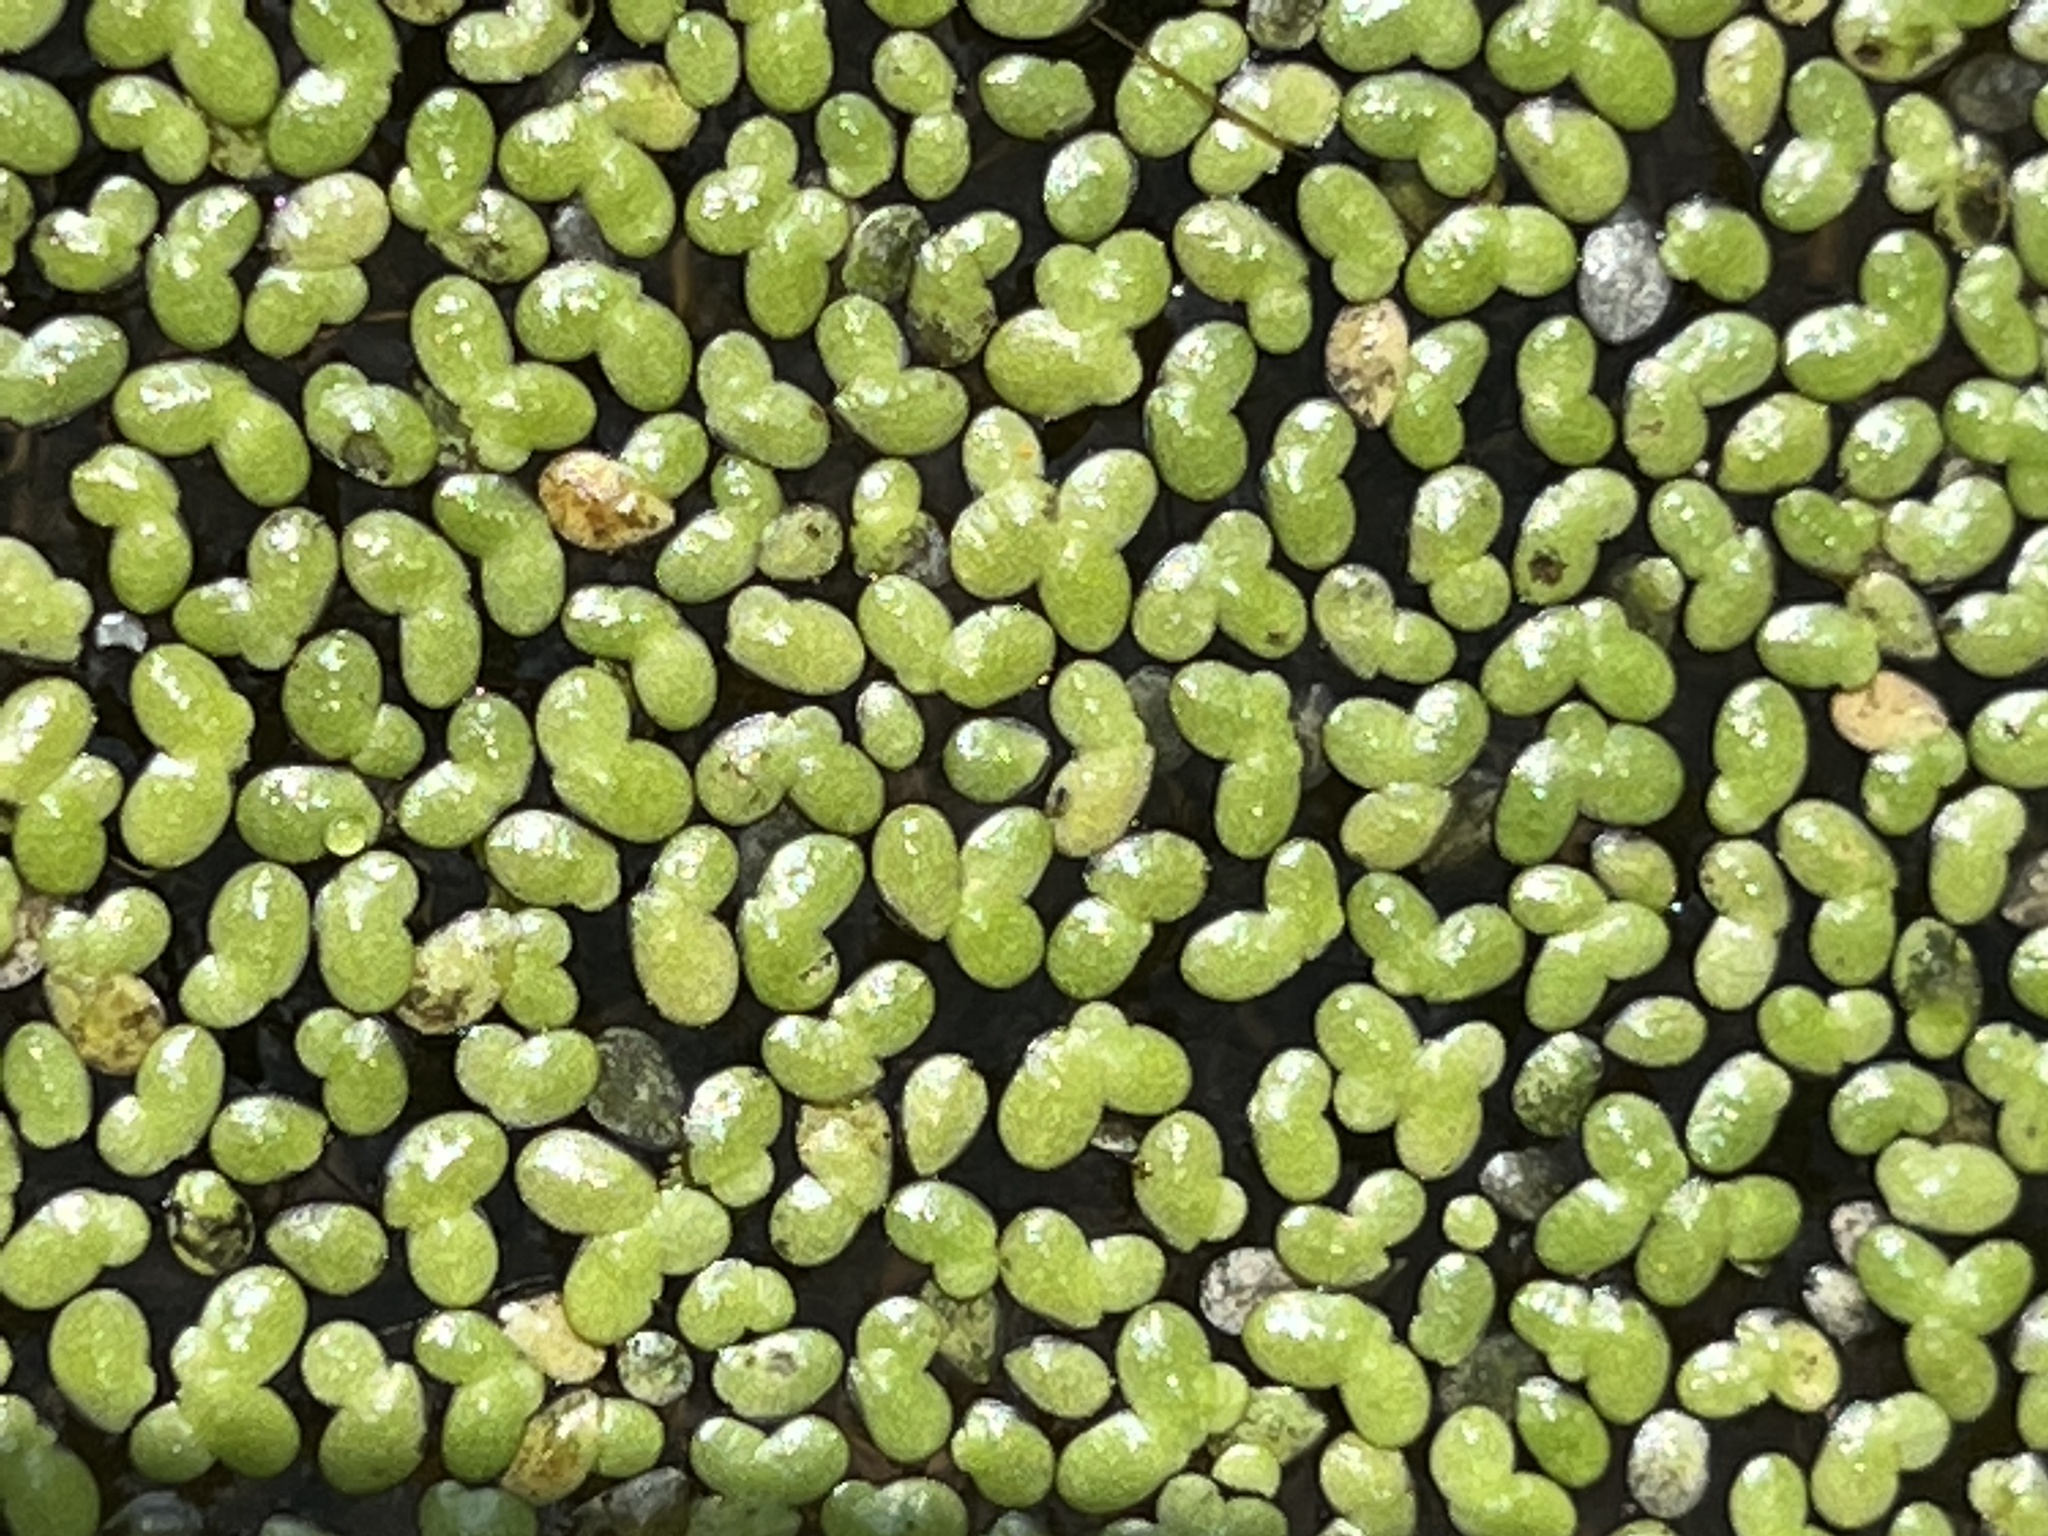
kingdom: Plantae
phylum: Tracheophyta
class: Liliopsida
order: Alismatales
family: Araceae
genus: Lemna
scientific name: Lemna minor
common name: Common duckweed
